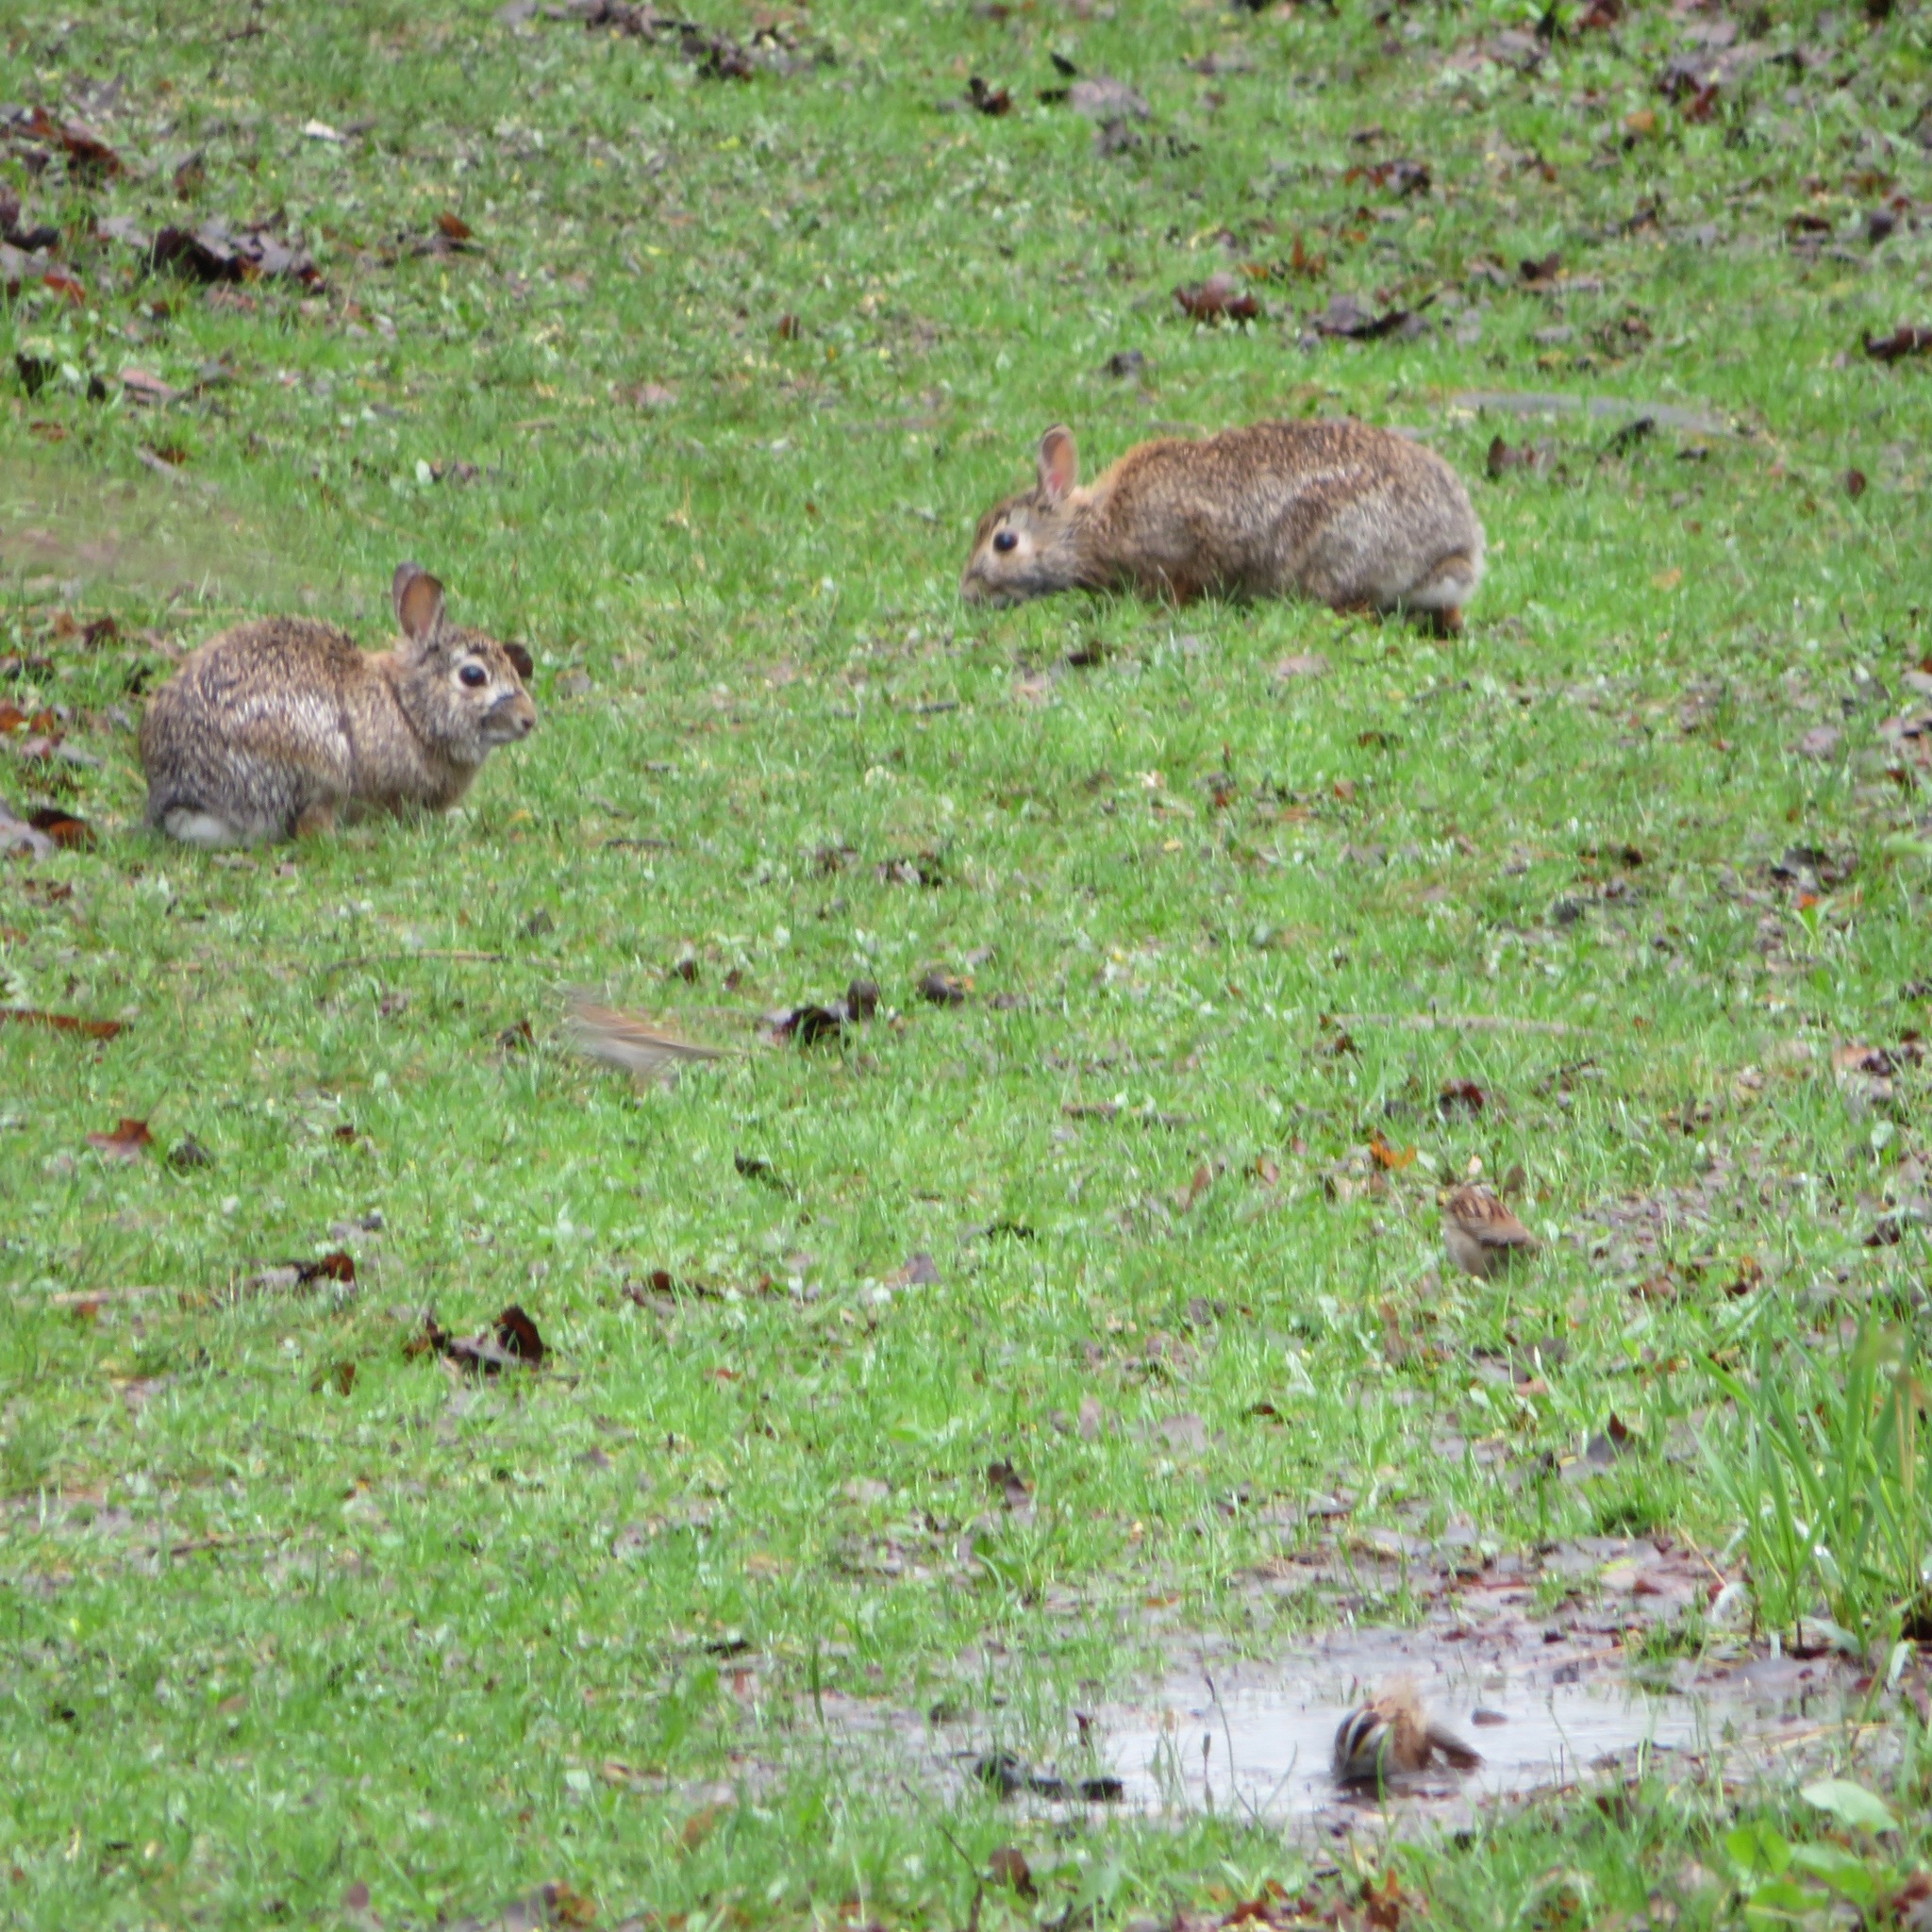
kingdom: Animalia
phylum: Chordata
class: Mammalia
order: Lagomorpha
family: Leporidae
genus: Sylvilagus
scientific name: Sylvilagus floridanus
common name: Eastern cottontail
